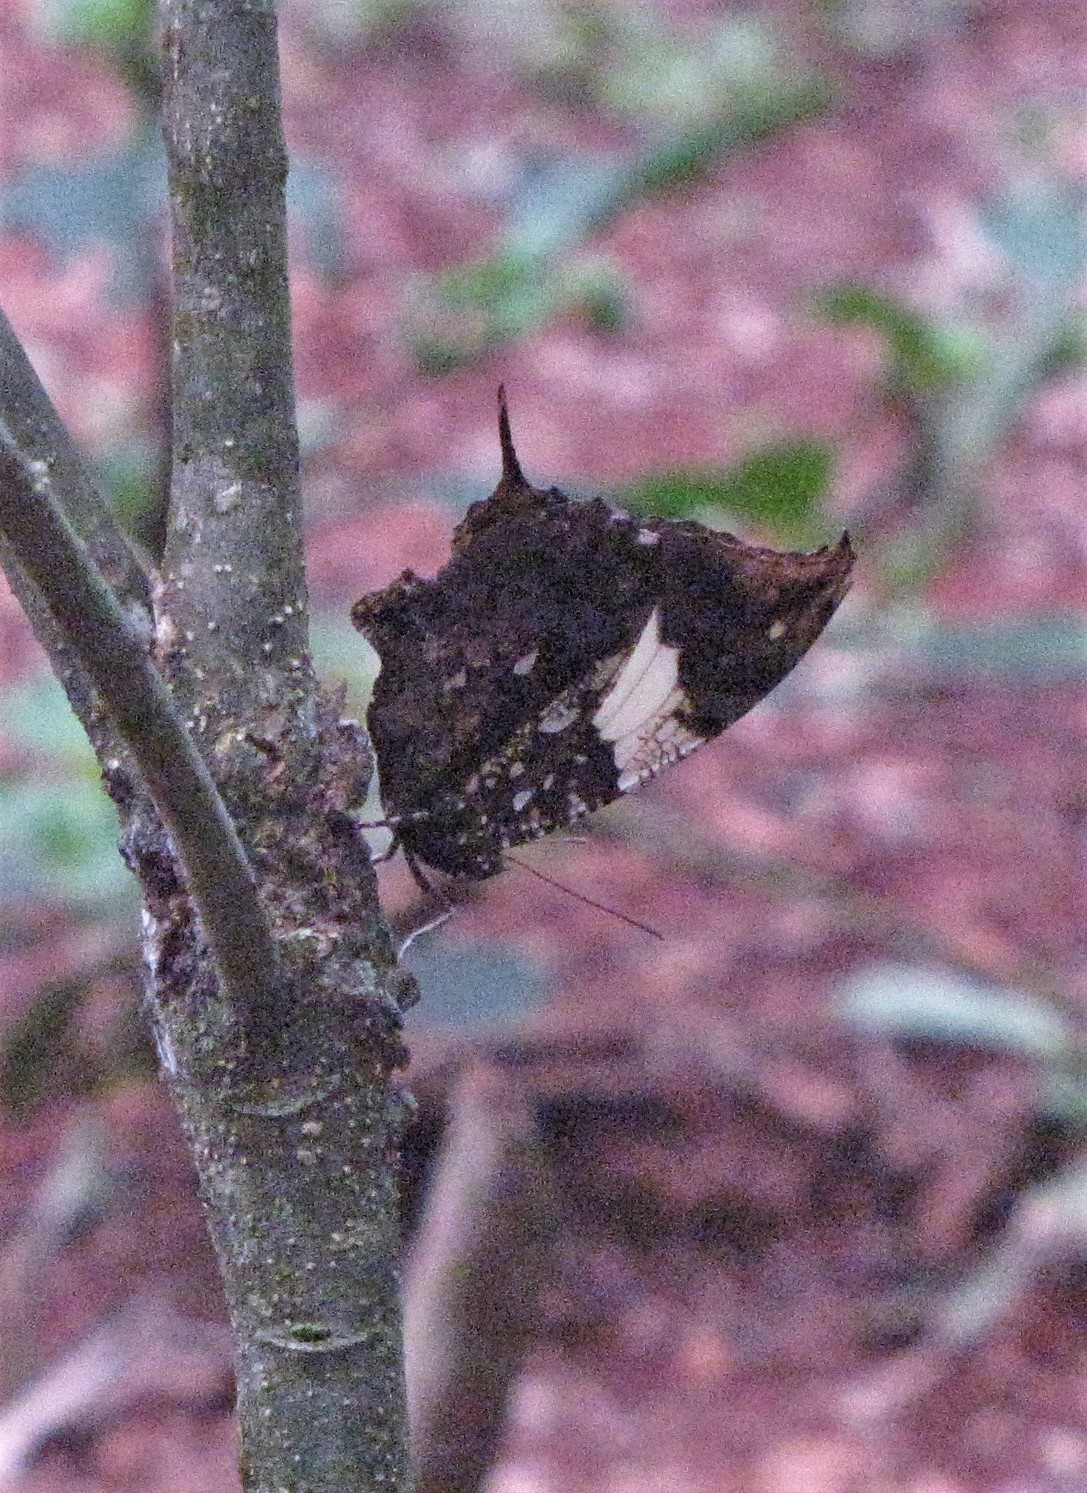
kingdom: Animalia
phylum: Arthropoda
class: Insecta
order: Lepidoptera
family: Nymphalidae
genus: Hypna
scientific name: Hypna clytemnestra
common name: Silver-studded leafwing
